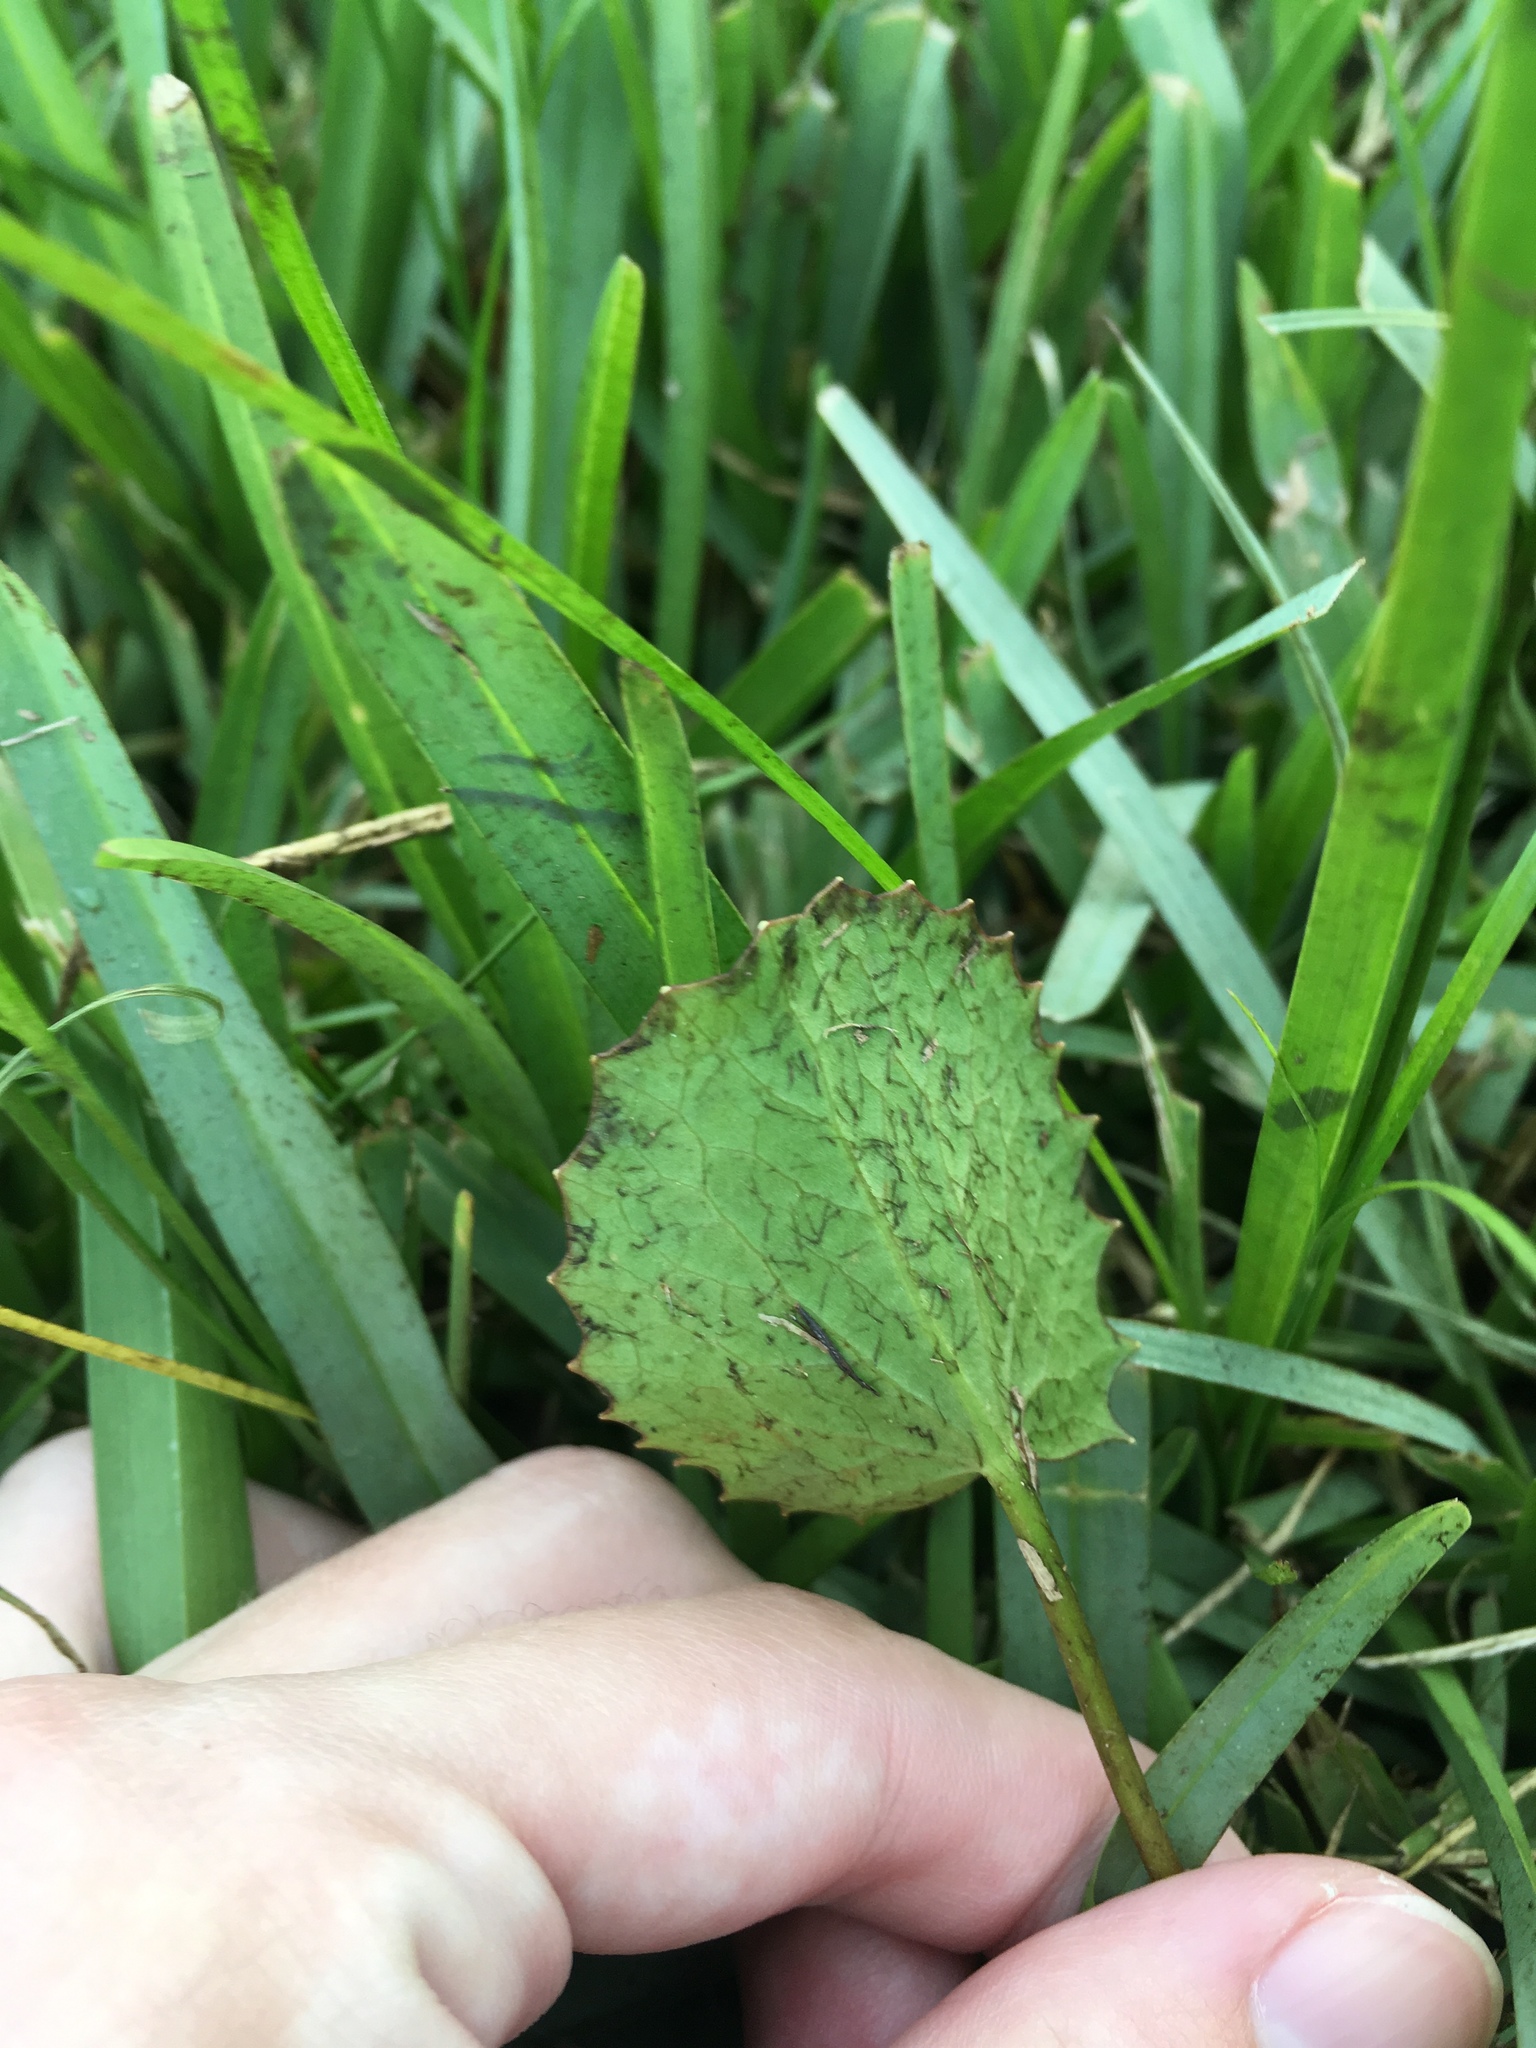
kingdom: Plantae
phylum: Tracheophyta
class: Magnoliopsida
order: Apiales
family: Apiaceae
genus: Centella
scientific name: Centella erecta
